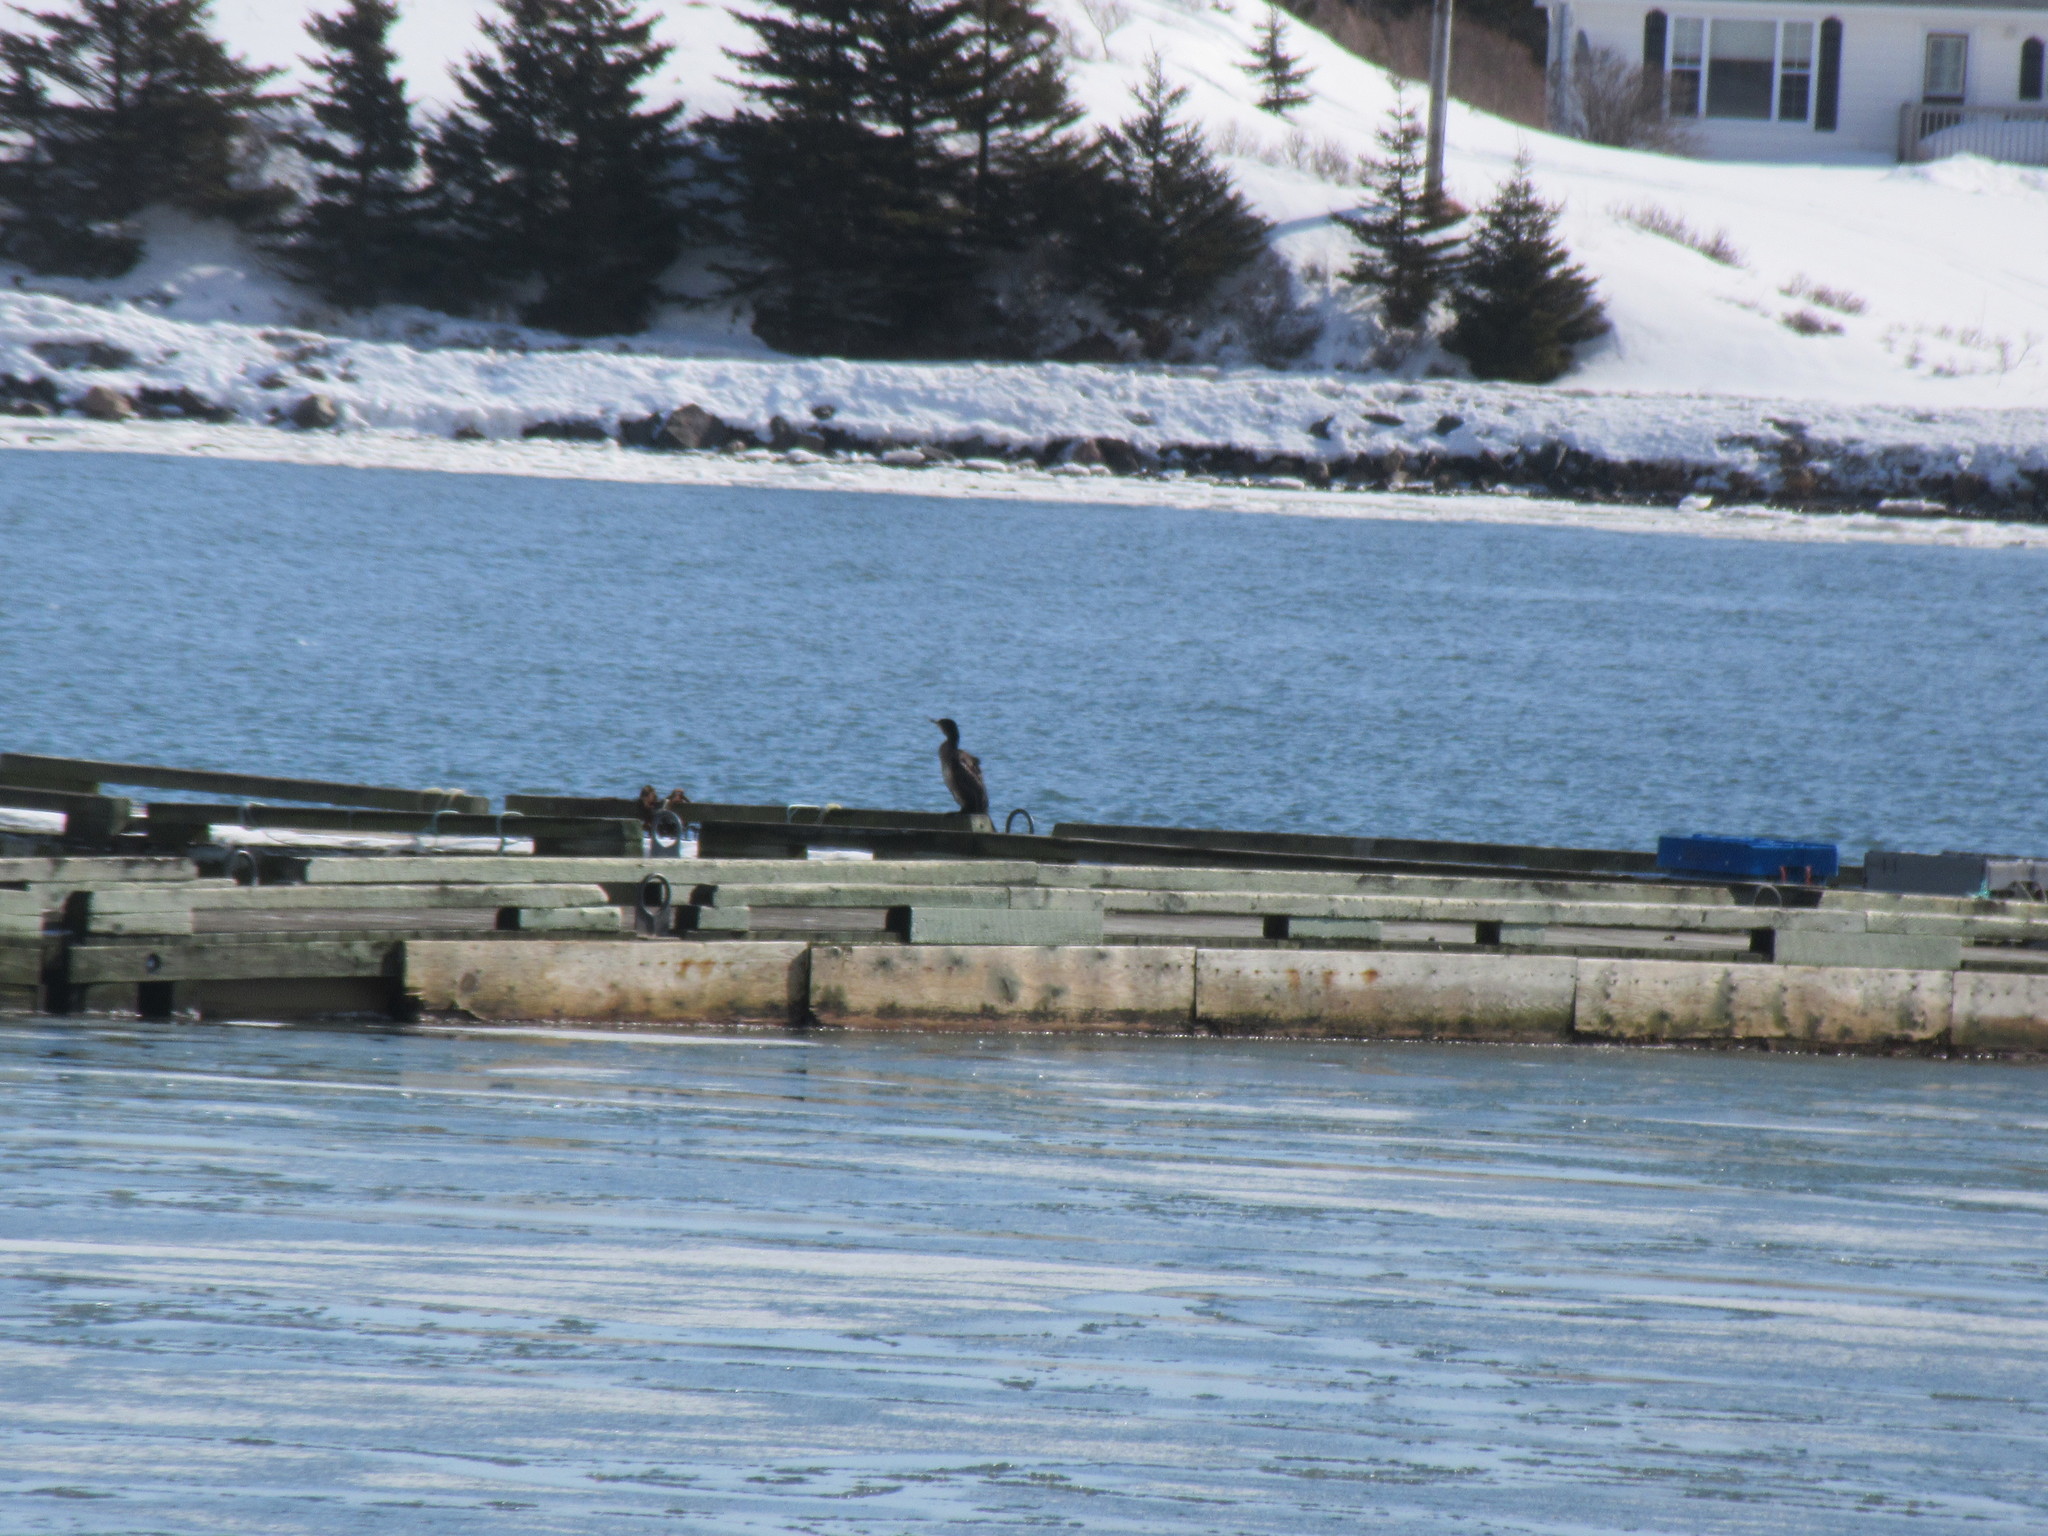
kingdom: Animalia
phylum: Chordata
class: Aves
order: Suliformes
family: Phalacrocoracidae
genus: Phalacrocorax
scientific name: Phalacrocorax carbo
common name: Great cormorant
